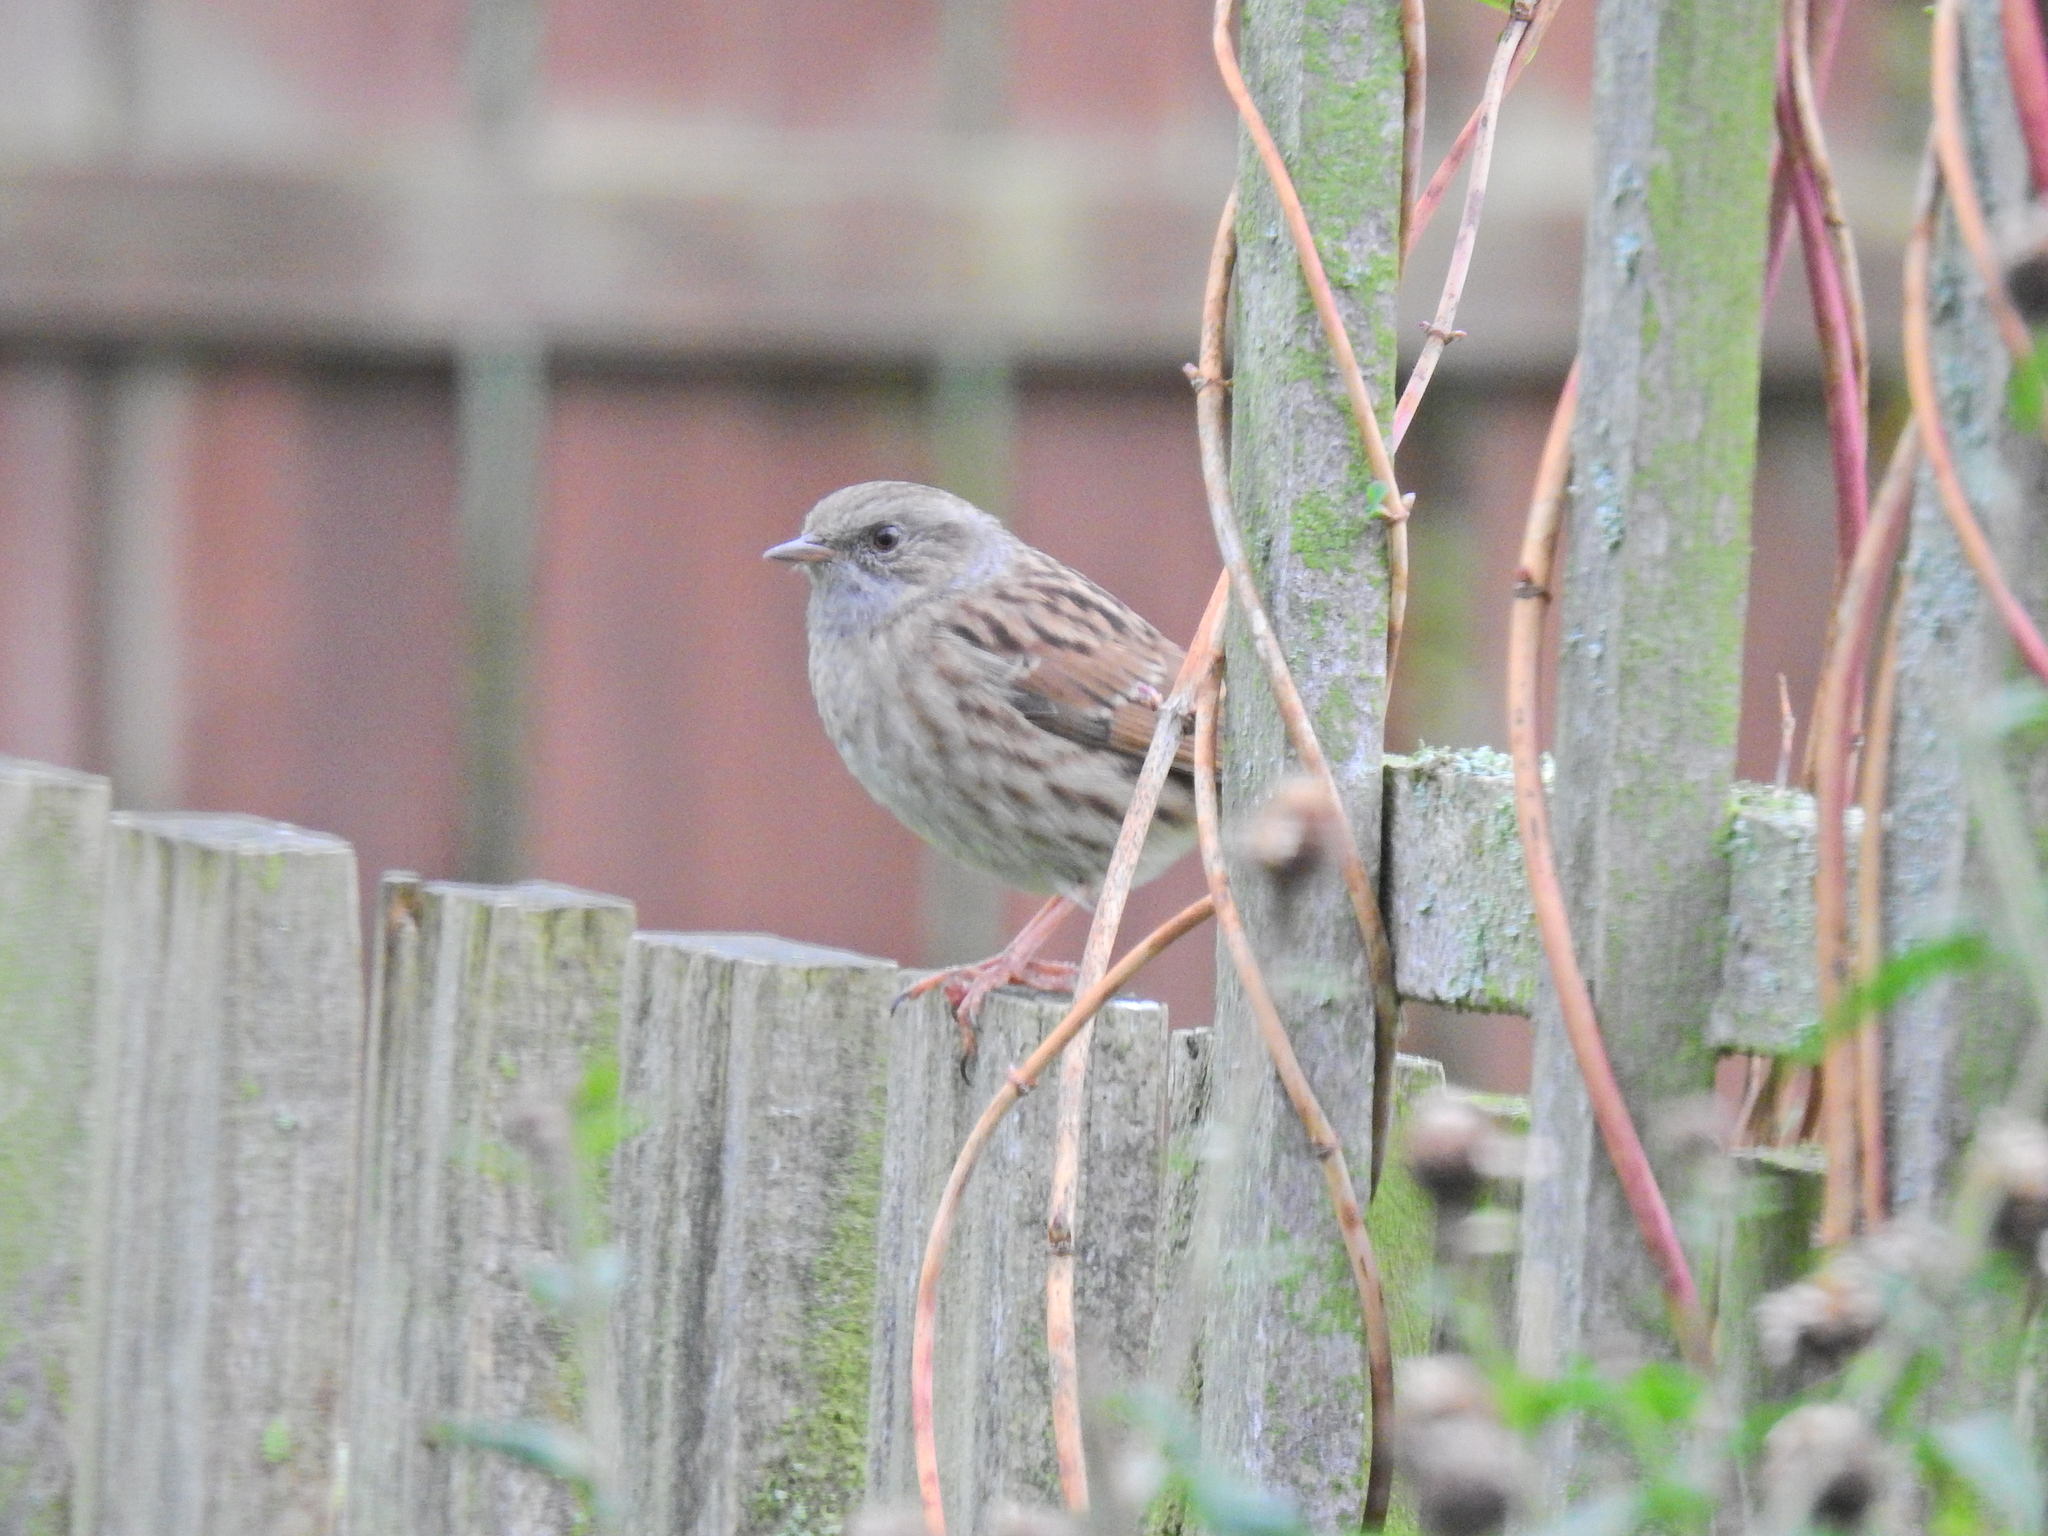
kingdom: Animalia
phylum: Chordata
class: Aves
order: Passeriformes
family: Prunellidae
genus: Prunella
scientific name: Prunella modularis
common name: Dunnock
